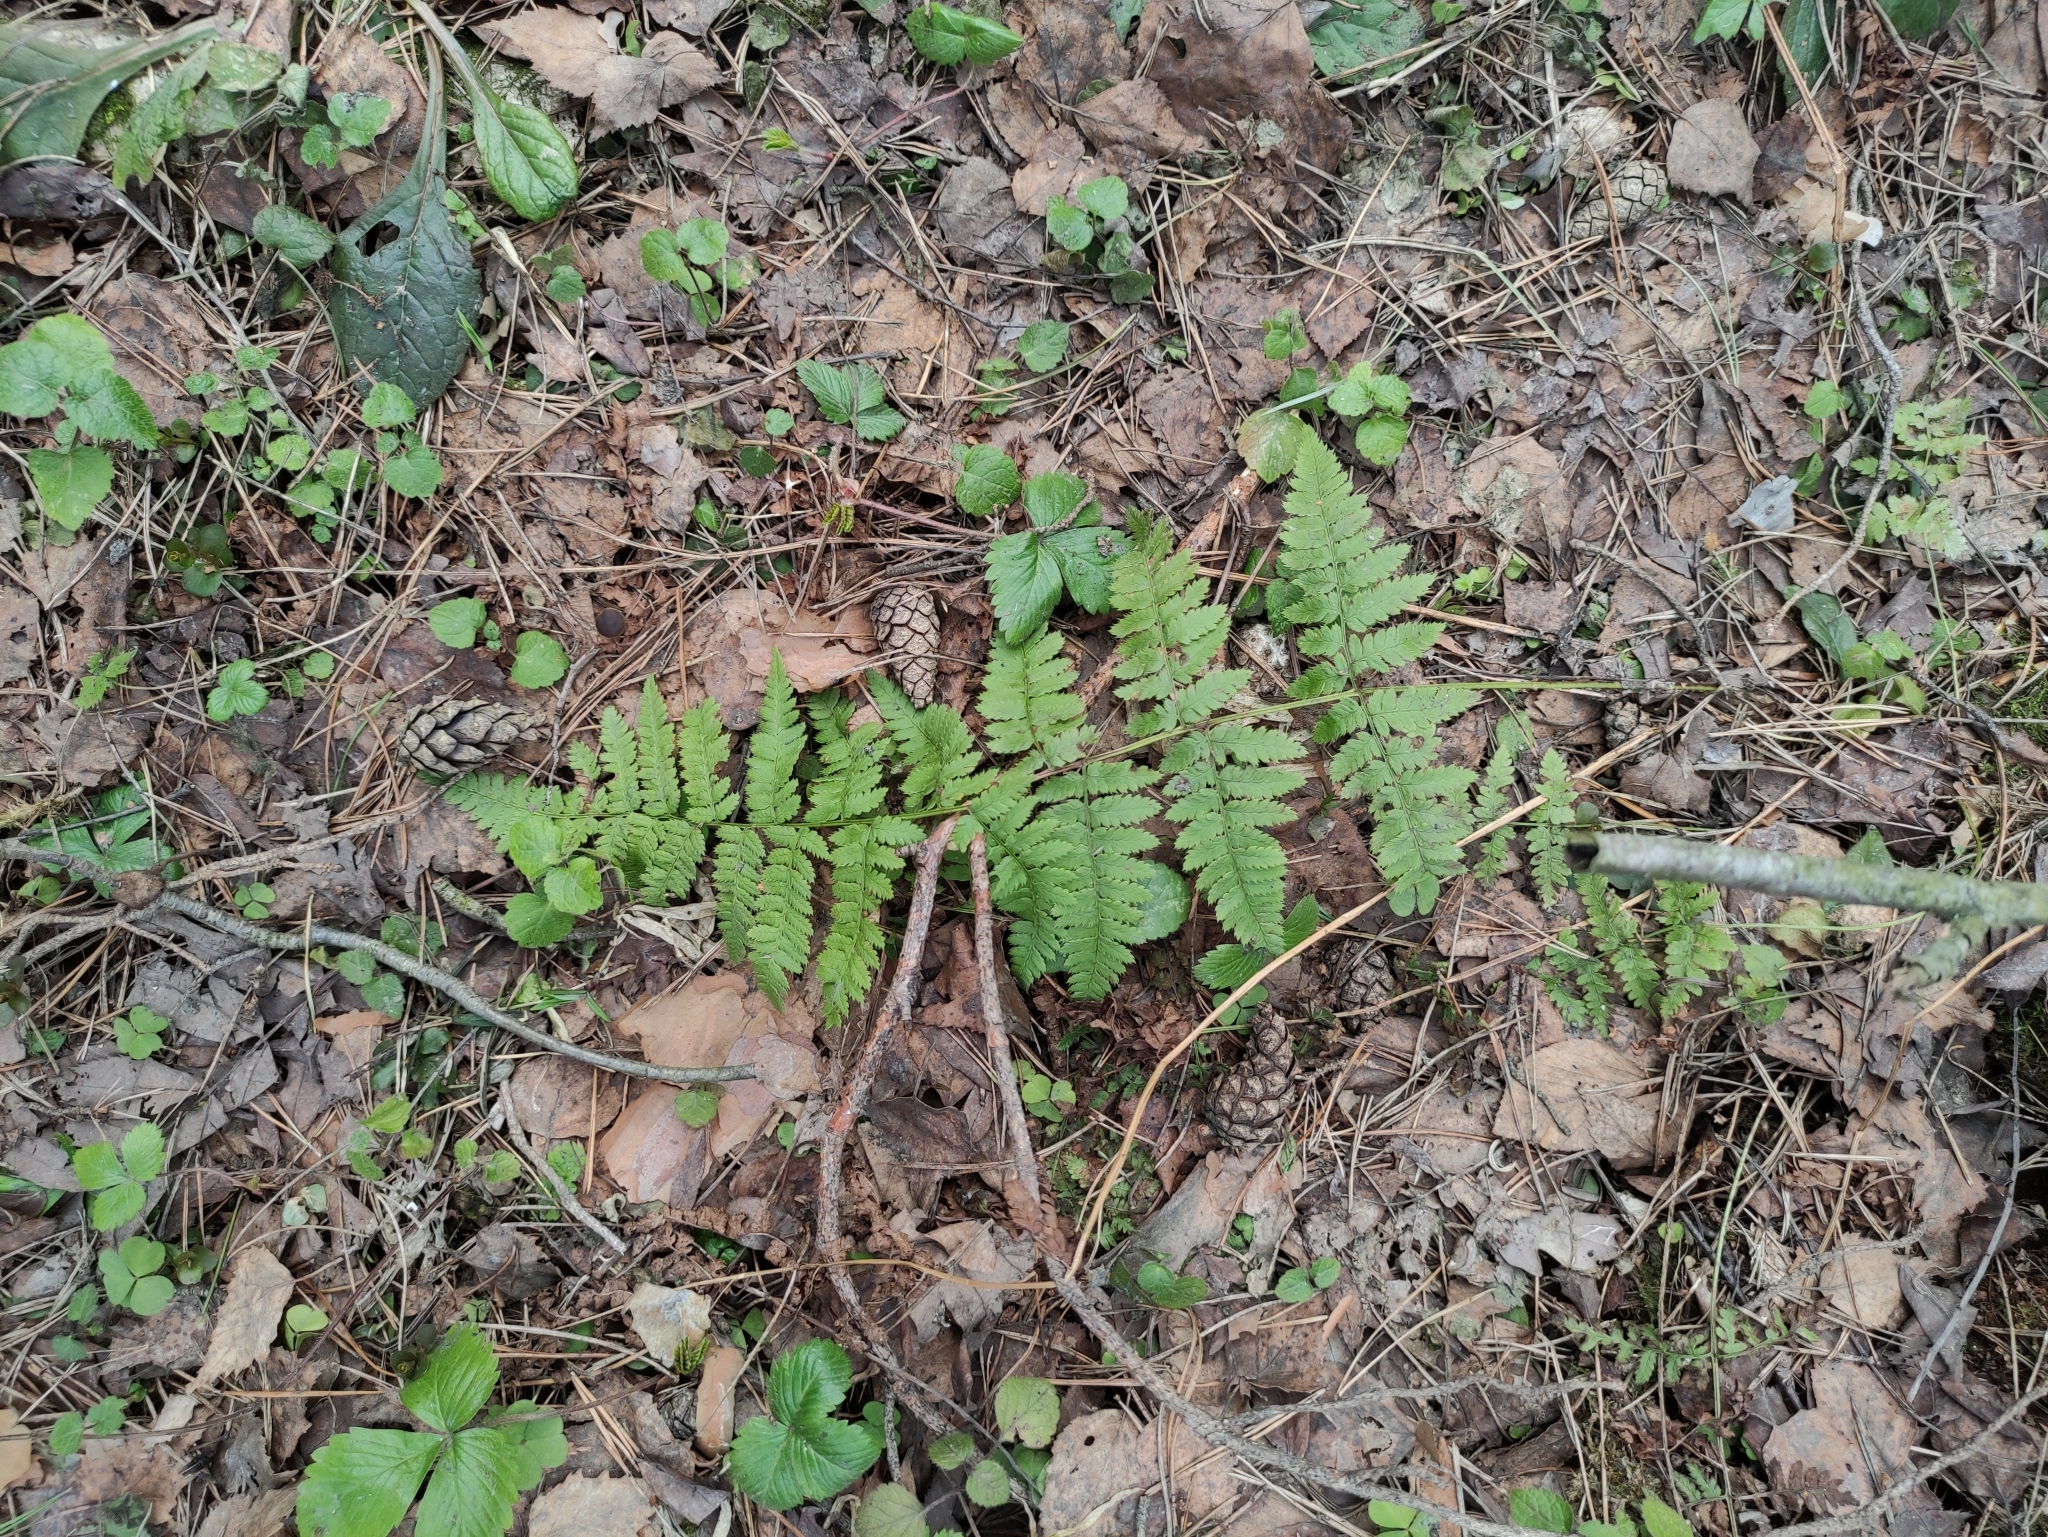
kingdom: Plantae
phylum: Tracheophyta
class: Polypodiopsida
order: Polypodiales
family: Dryopteridaceae
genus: Dryopteris
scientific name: Dryopteris carthusiana
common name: Narrow buckler-fern
